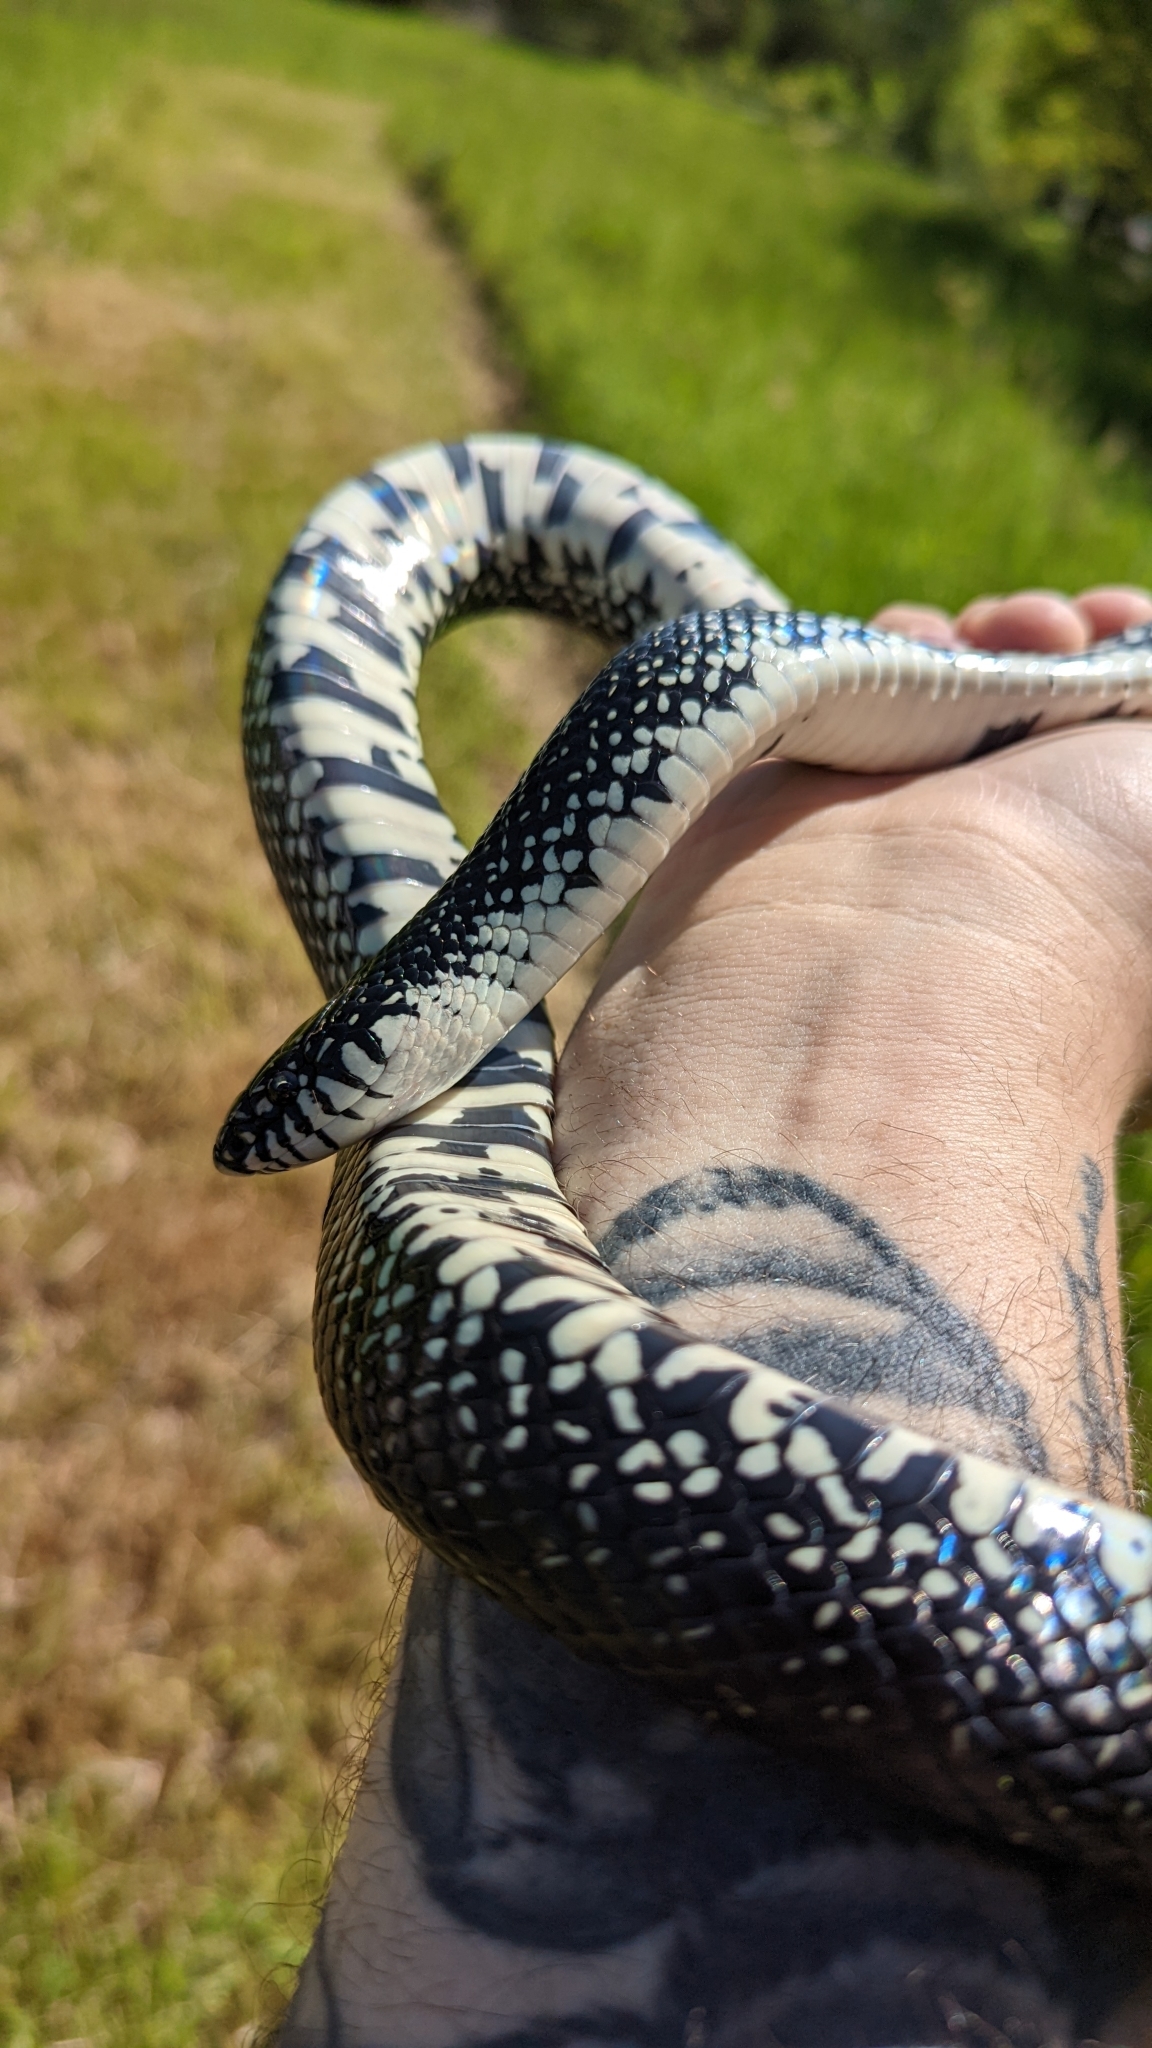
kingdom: Animalia
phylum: Chordata
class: Squamata
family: Colubridae
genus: Lampropeltis
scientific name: Lampropeltis nigra
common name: Black kingsnake
